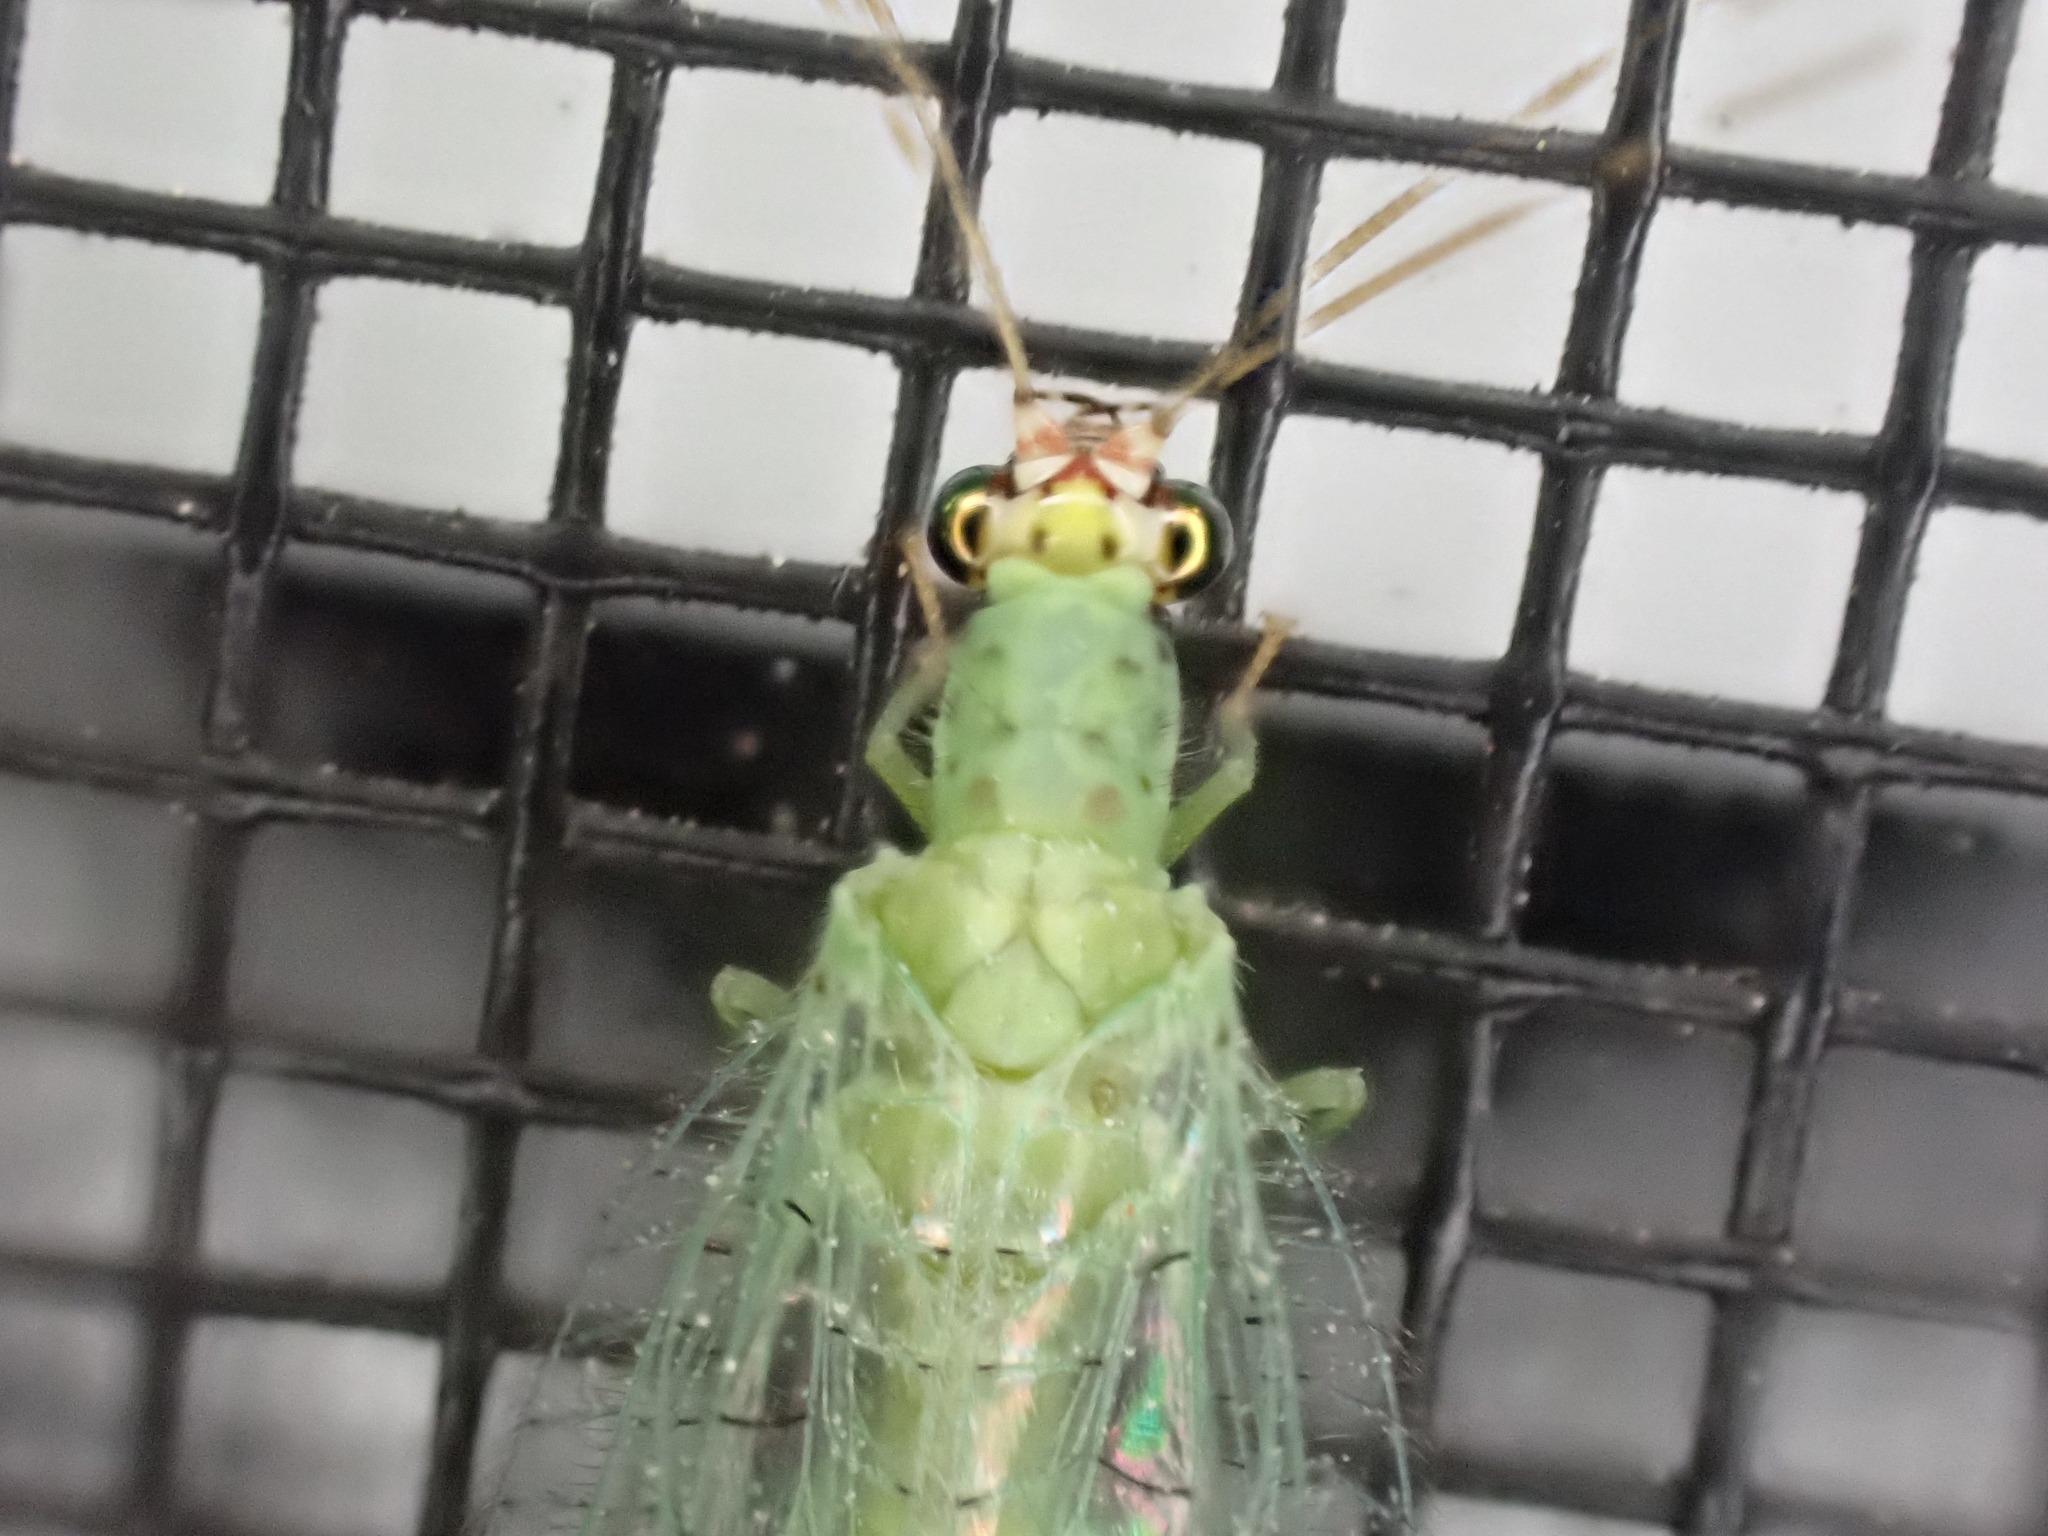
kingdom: Animalia
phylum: Arthropoda
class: Insecta
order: Neuroptera
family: Chrysopidae
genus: Chrysopa
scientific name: Chrysopa oculata
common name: Golden-eyed lacewing
